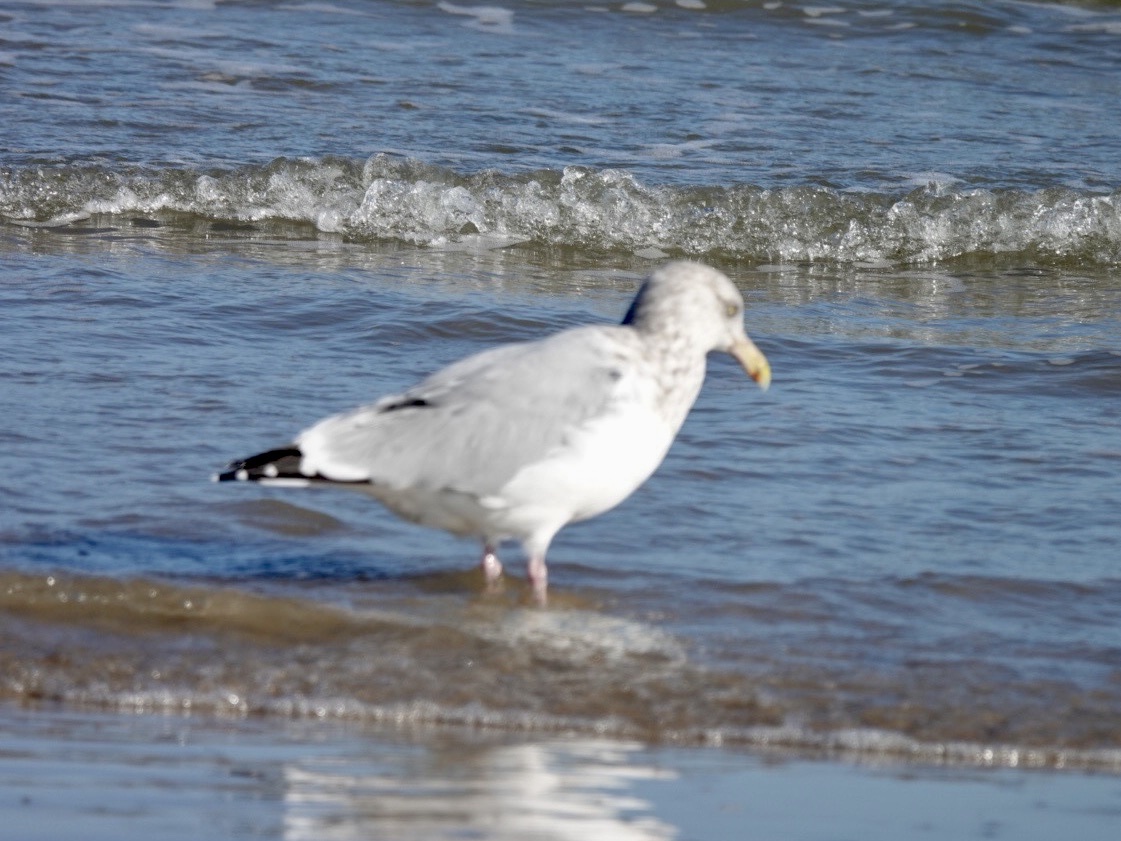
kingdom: Animalia
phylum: Chordata
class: Aves
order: Charadriiformes
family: Laridae
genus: Larus
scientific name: Larus argentatus
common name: Herring gull
